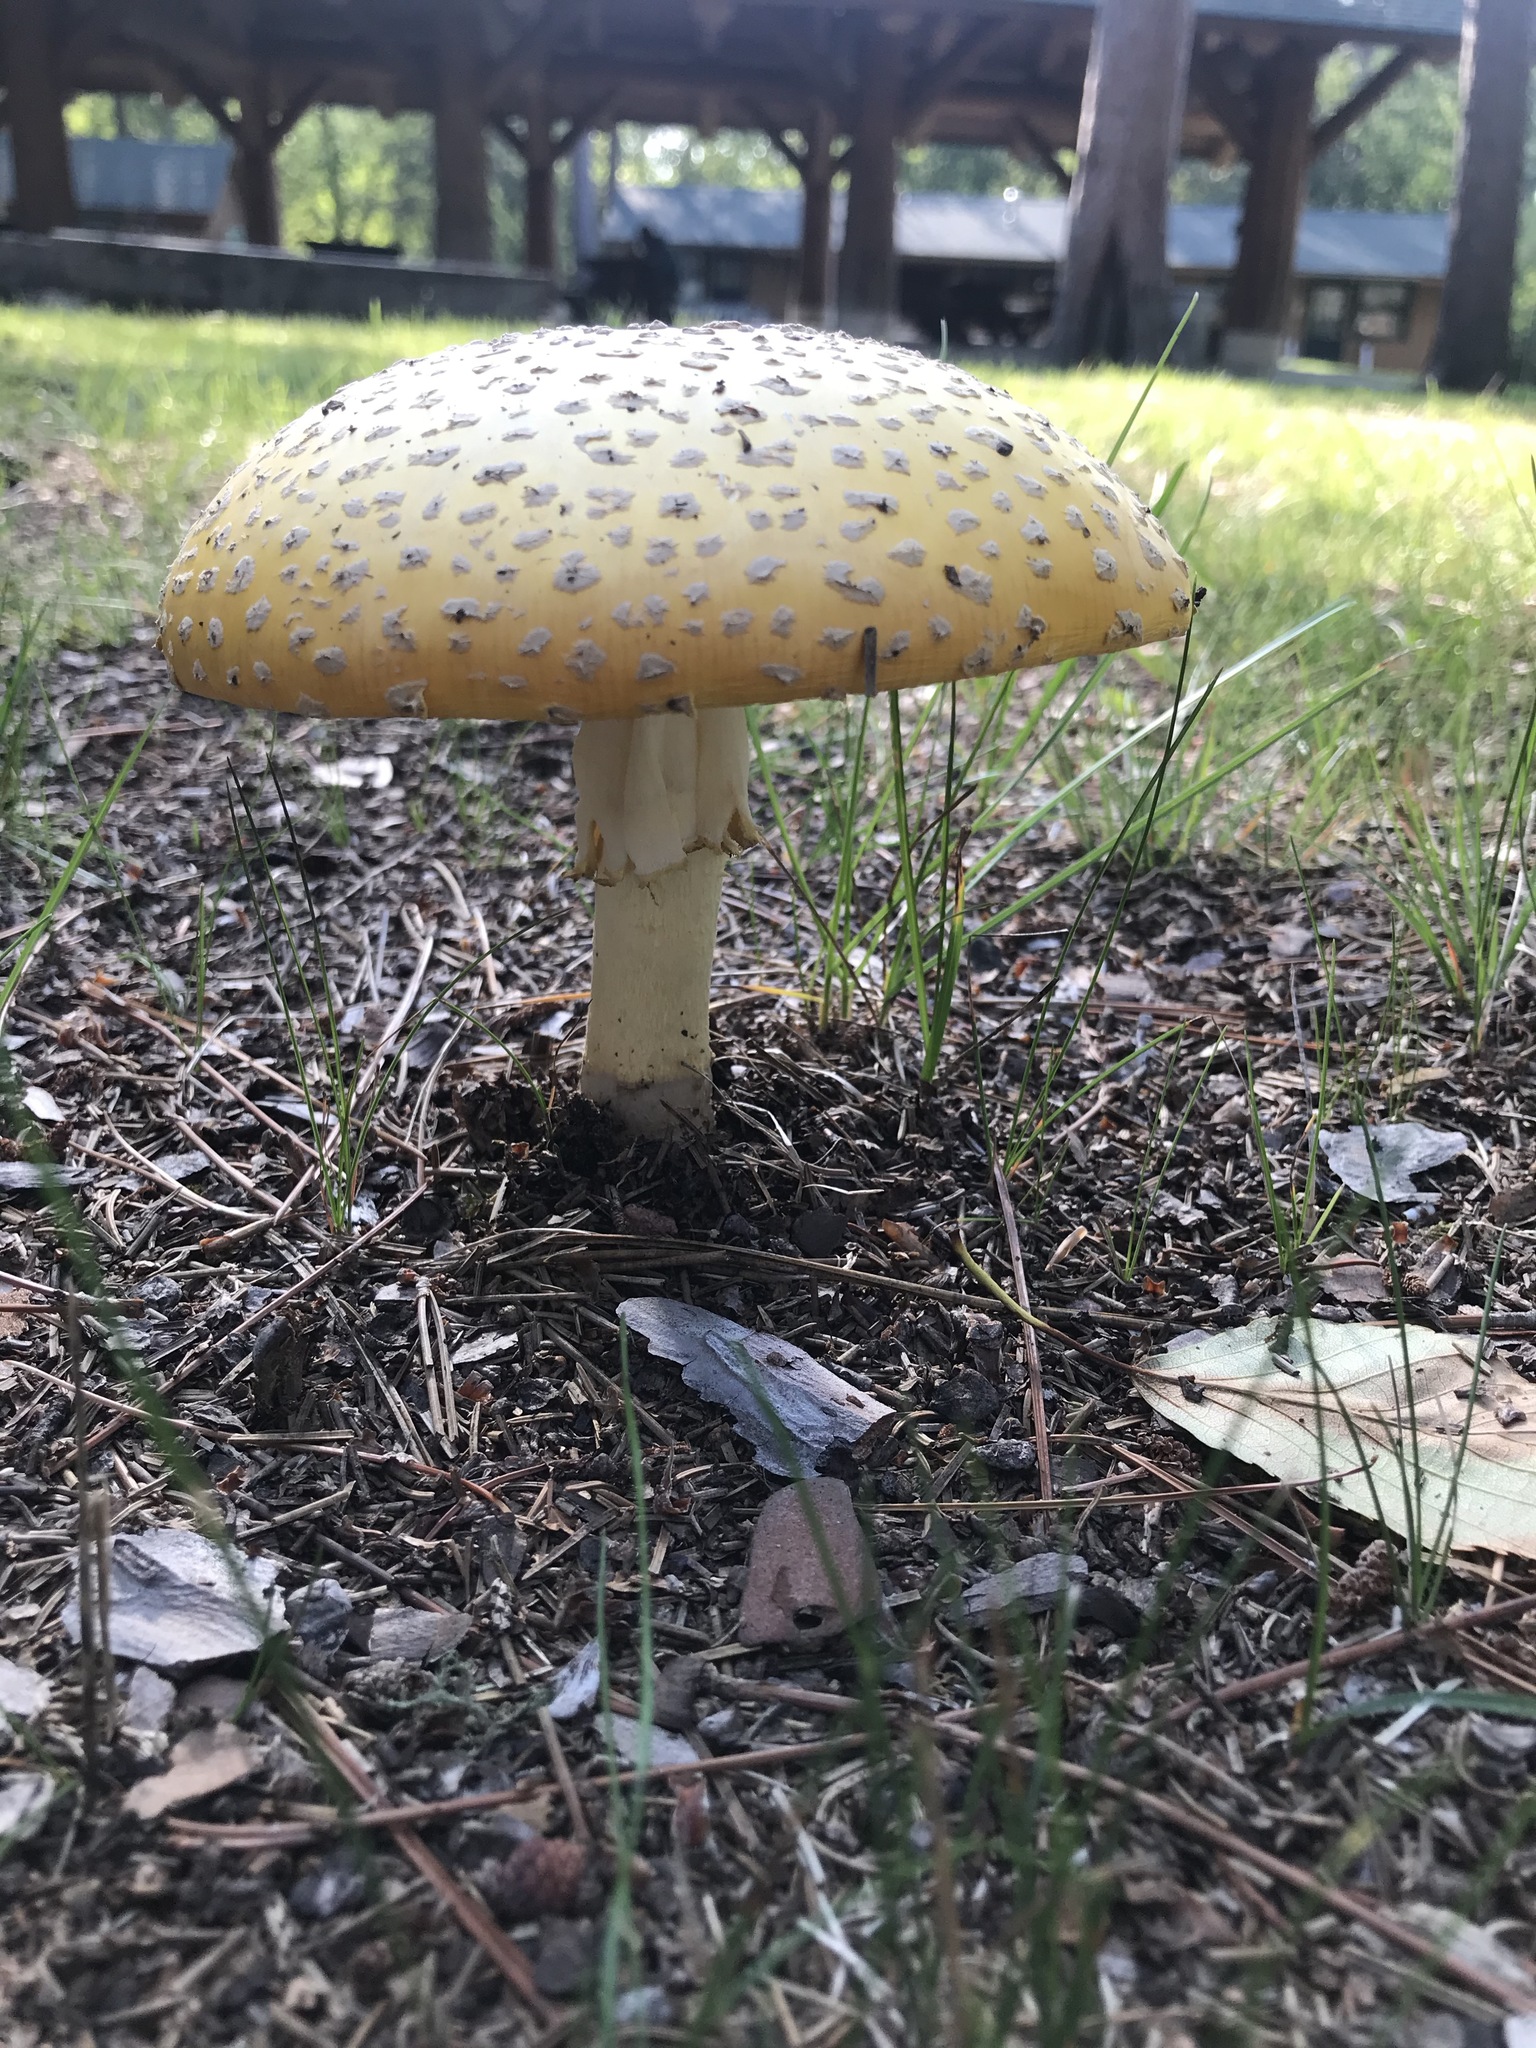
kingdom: Fungi
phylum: Basidiomycota
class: Agaricomycetes
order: Agaricales
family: Amanitaceae
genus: Amanita
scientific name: Amanita muscaria
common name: Fly agaric
